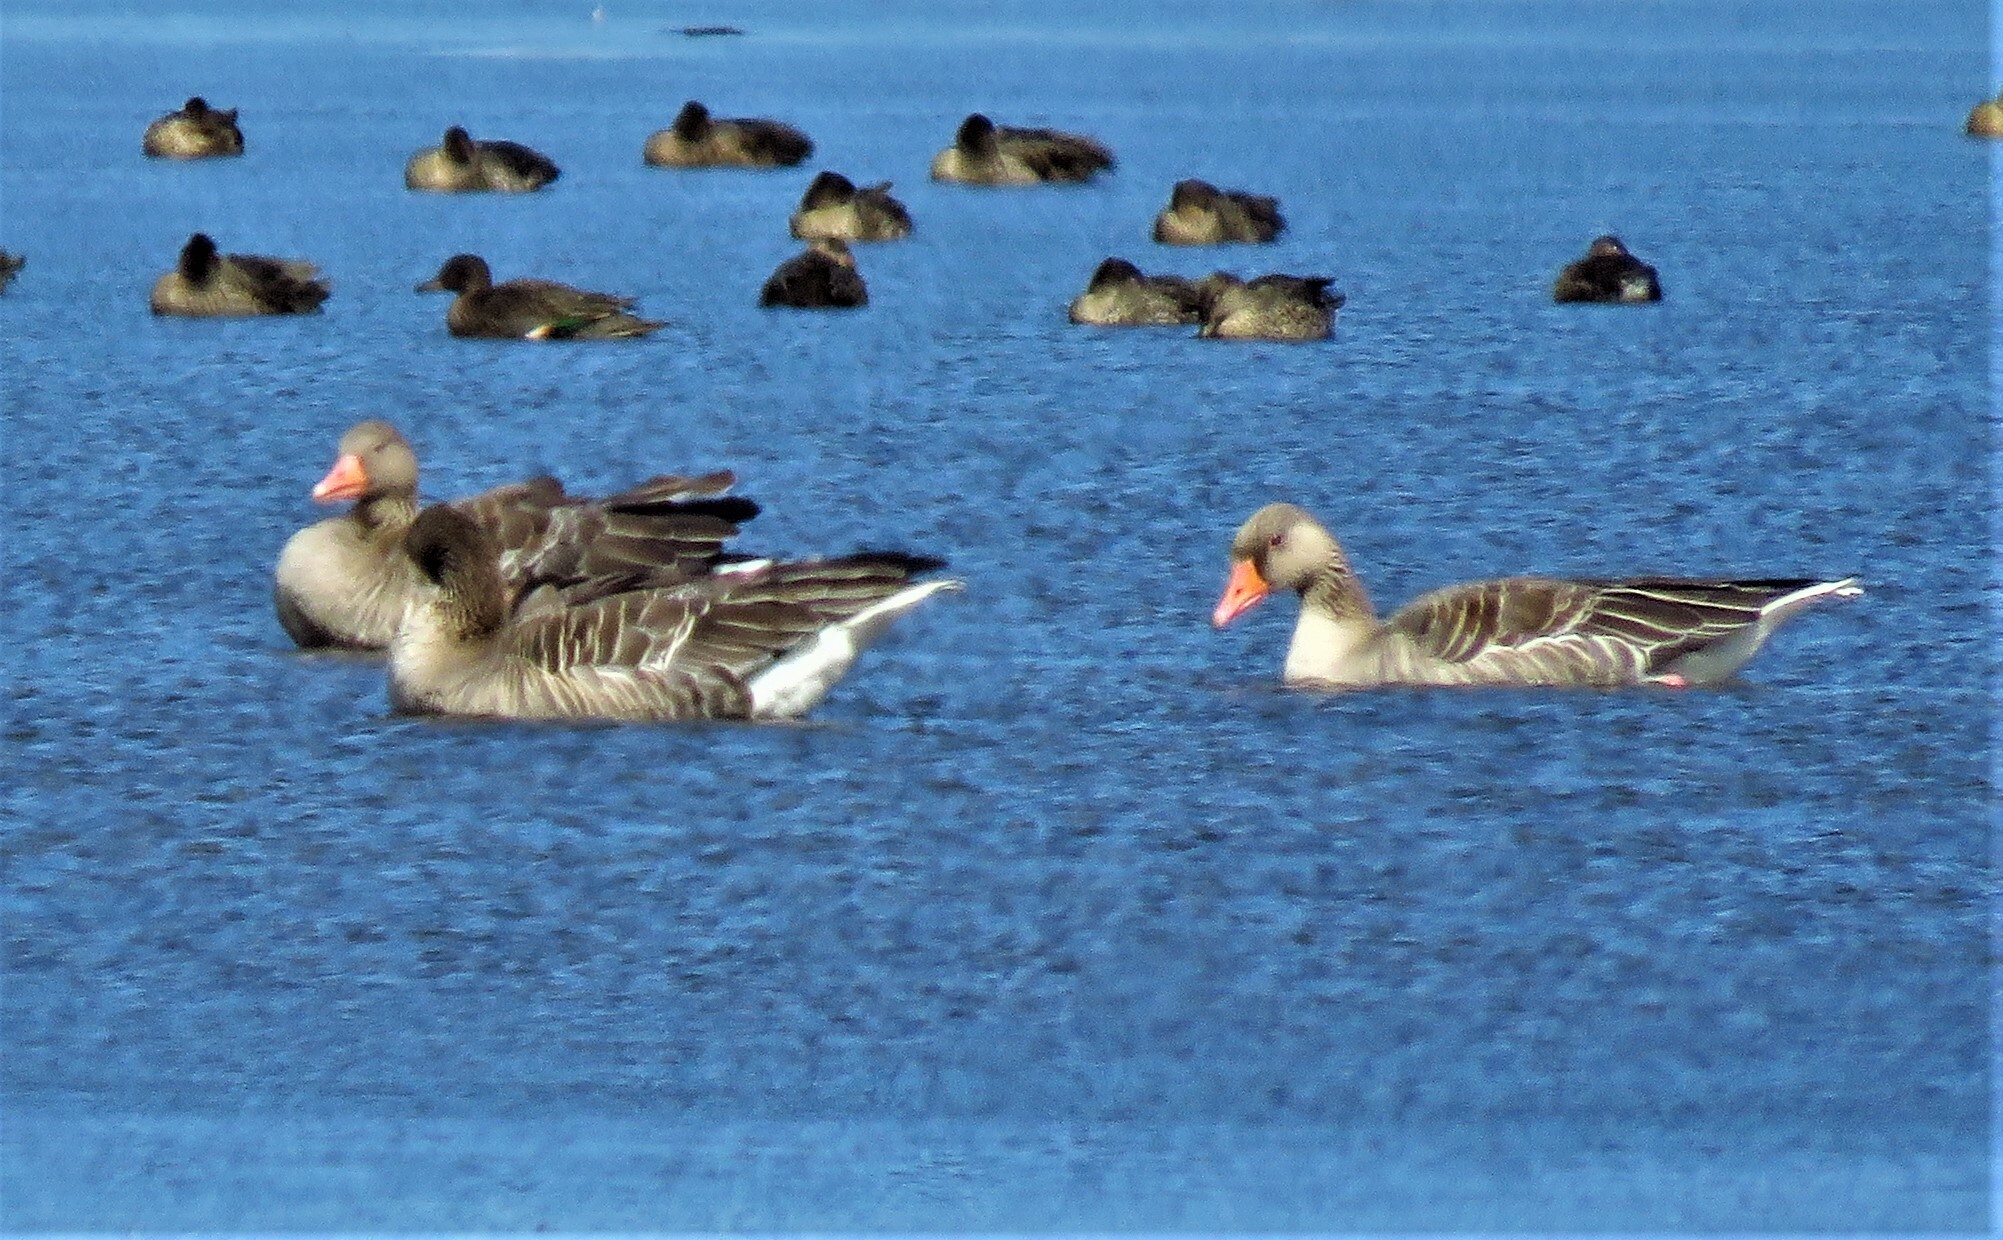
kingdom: Animalia
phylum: Chordata
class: Aves
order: Anseriformes
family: Anatidae
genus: Anser
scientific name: Anser anser
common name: Greylag goose
